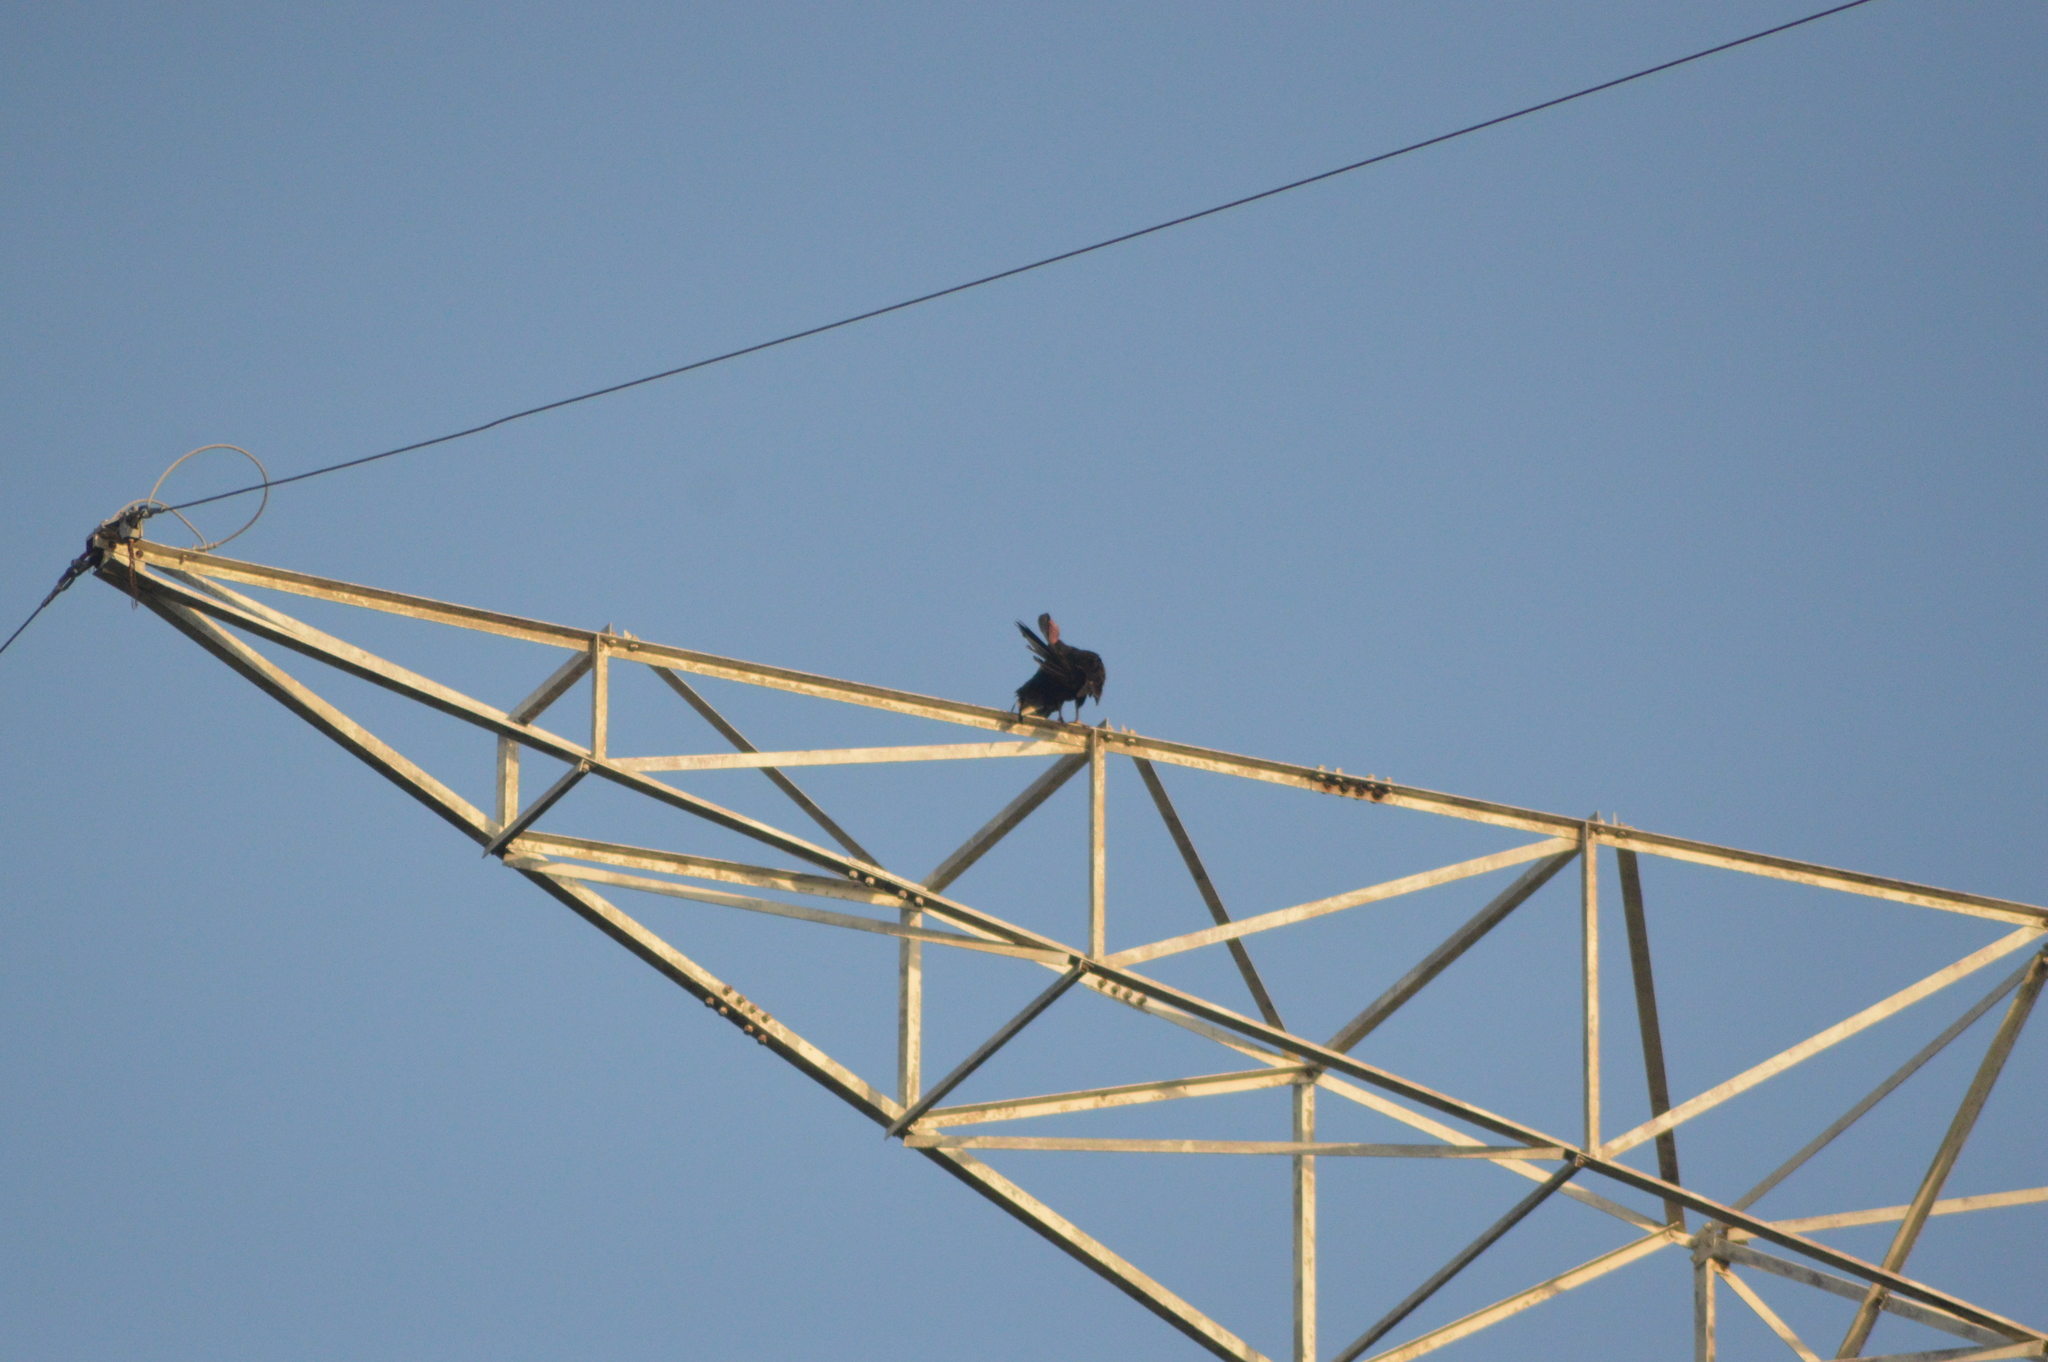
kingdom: Animalia
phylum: Chordata
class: Aves
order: Accipitriformes
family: Cathartidae
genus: Coragyps
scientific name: Coragyps atratus
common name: Black vulture
